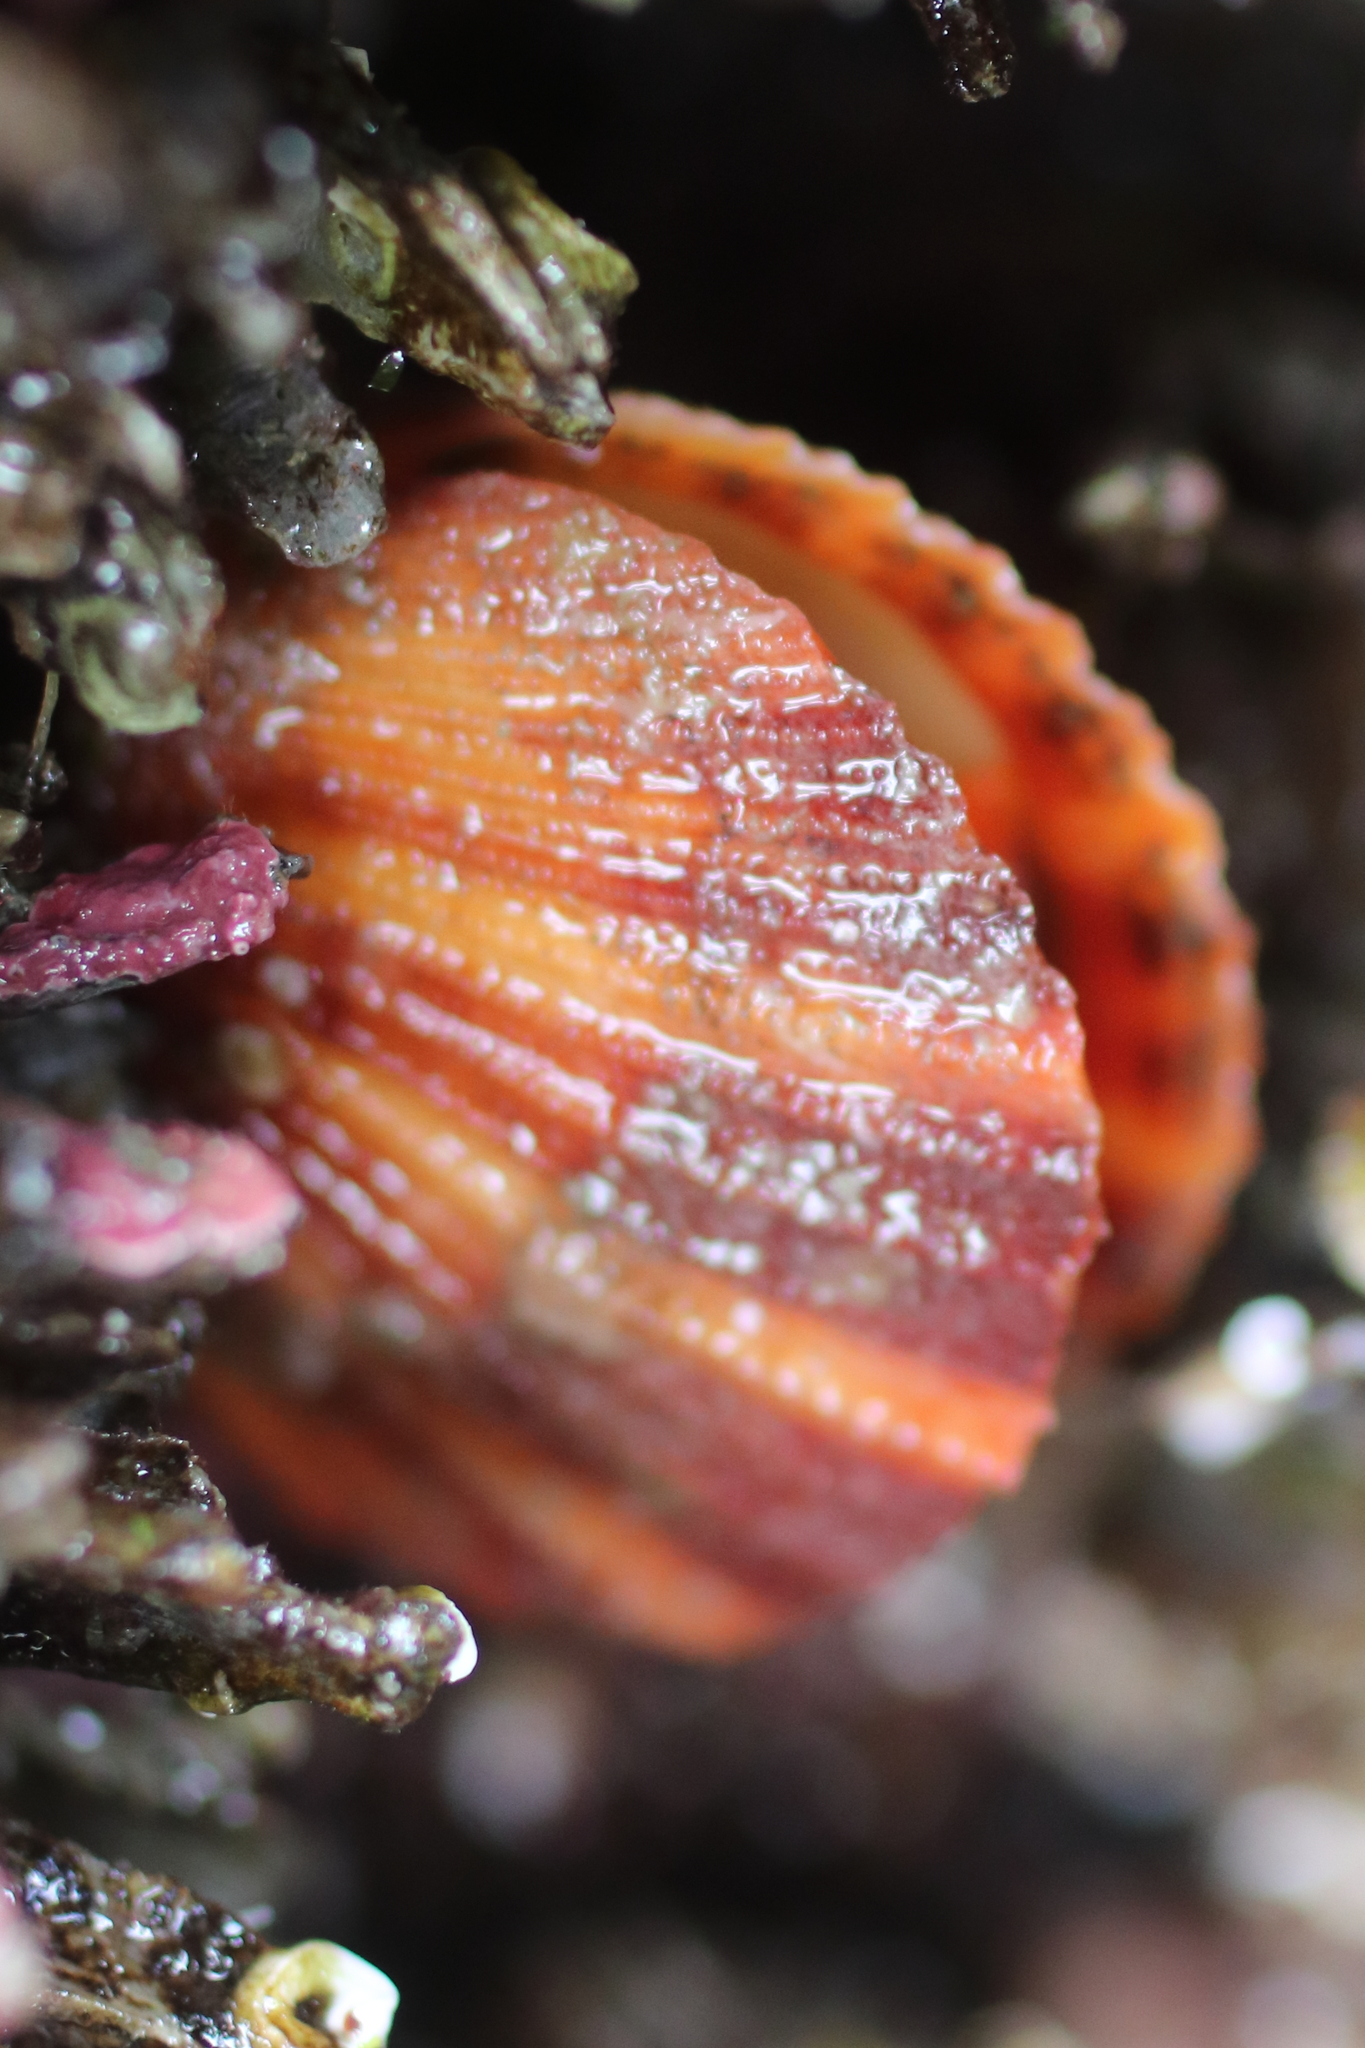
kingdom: Animalia
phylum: Mollusca
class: Bivalvia
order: Pectinida
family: Pectinidae
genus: Chlamys
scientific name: Chlamys hastata
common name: Spear scallop
